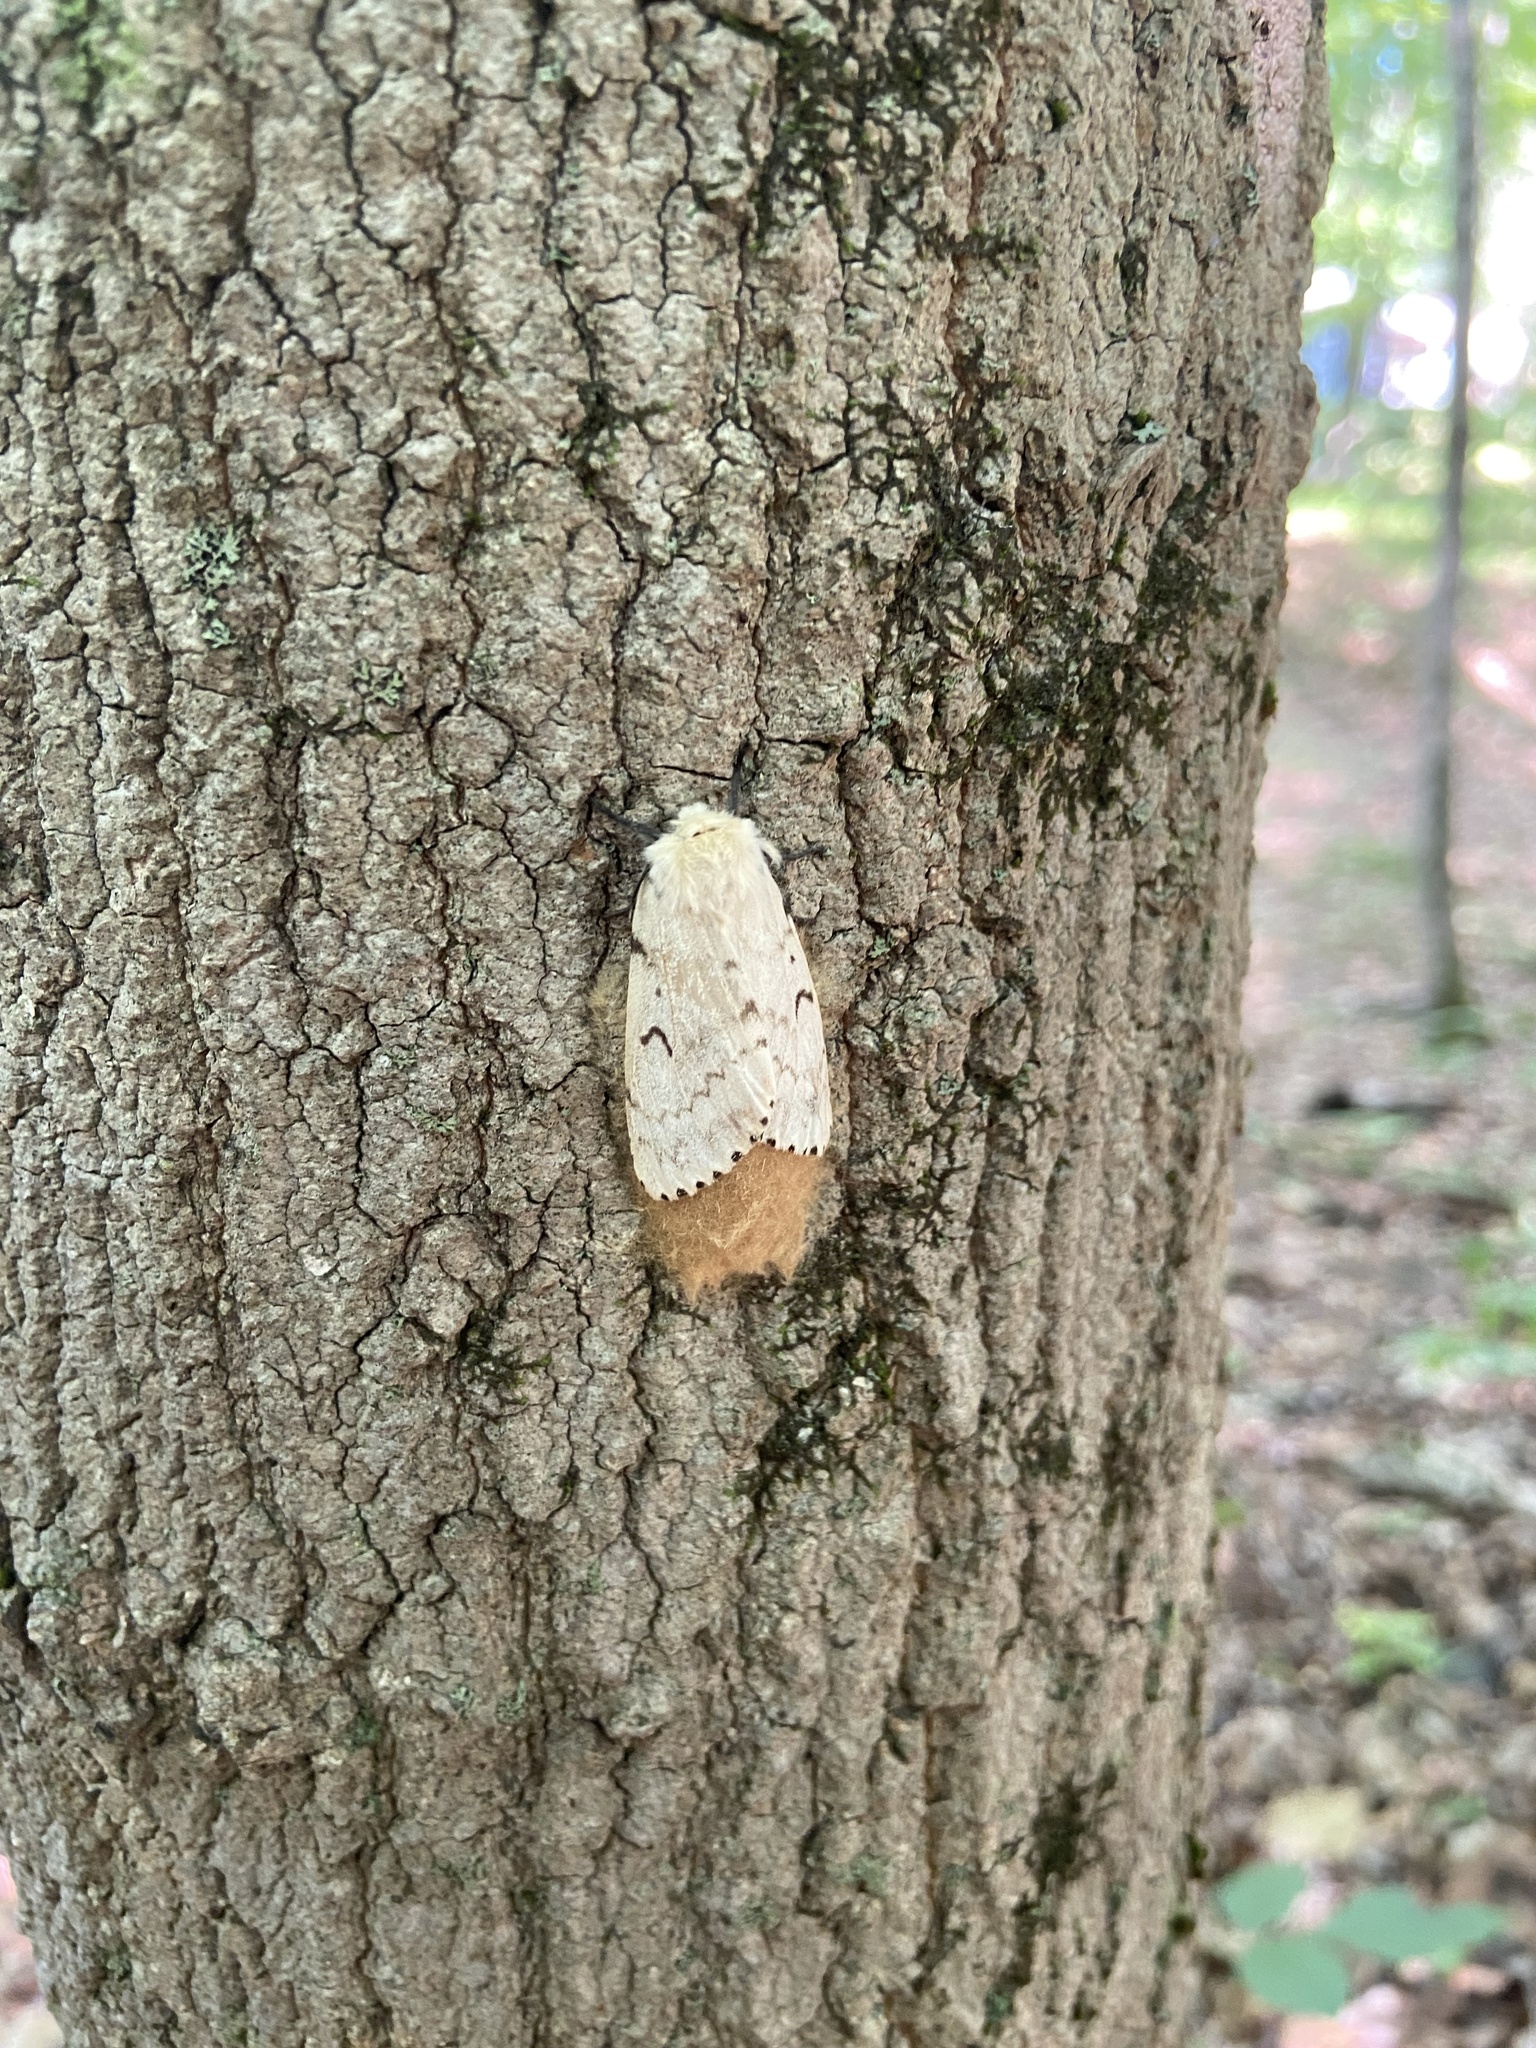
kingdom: Animalia
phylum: Arthropoda
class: Insecta
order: Lepidoptera
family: Erebidae
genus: Lymantria
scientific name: Lymantria dispar
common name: Gypsy moth
